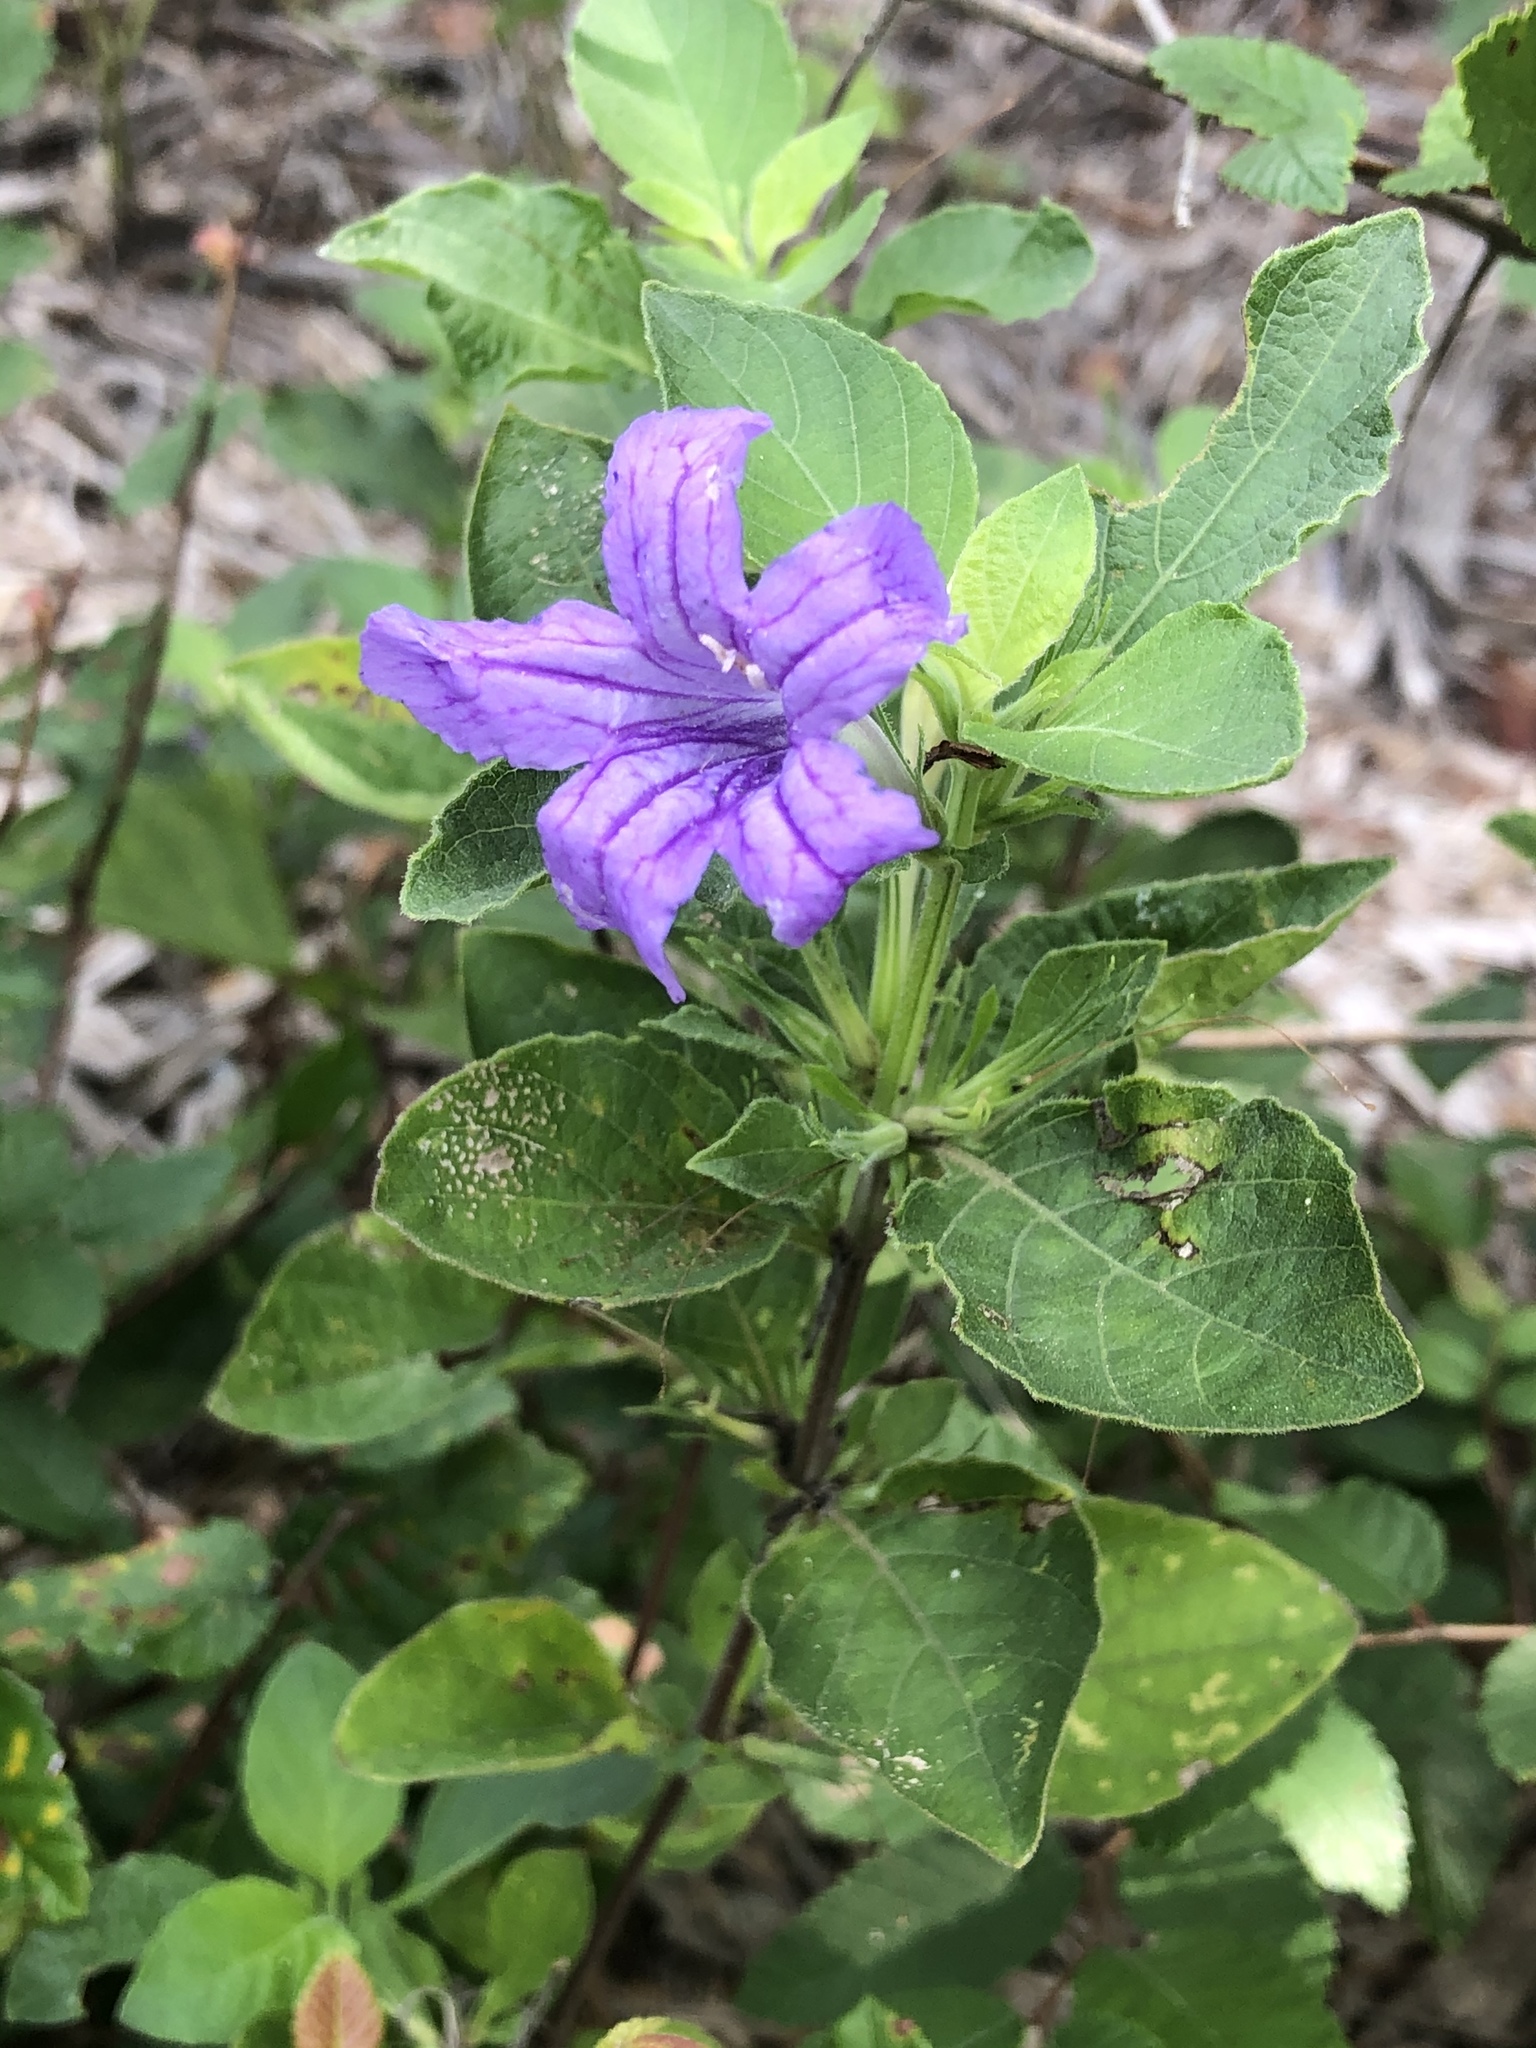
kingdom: Plantae
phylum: Tracheophyta
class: Magnoliopsida
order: Lamiales
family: Acanthaceae
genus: Ruellia
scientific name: Ruellia drummondiana
